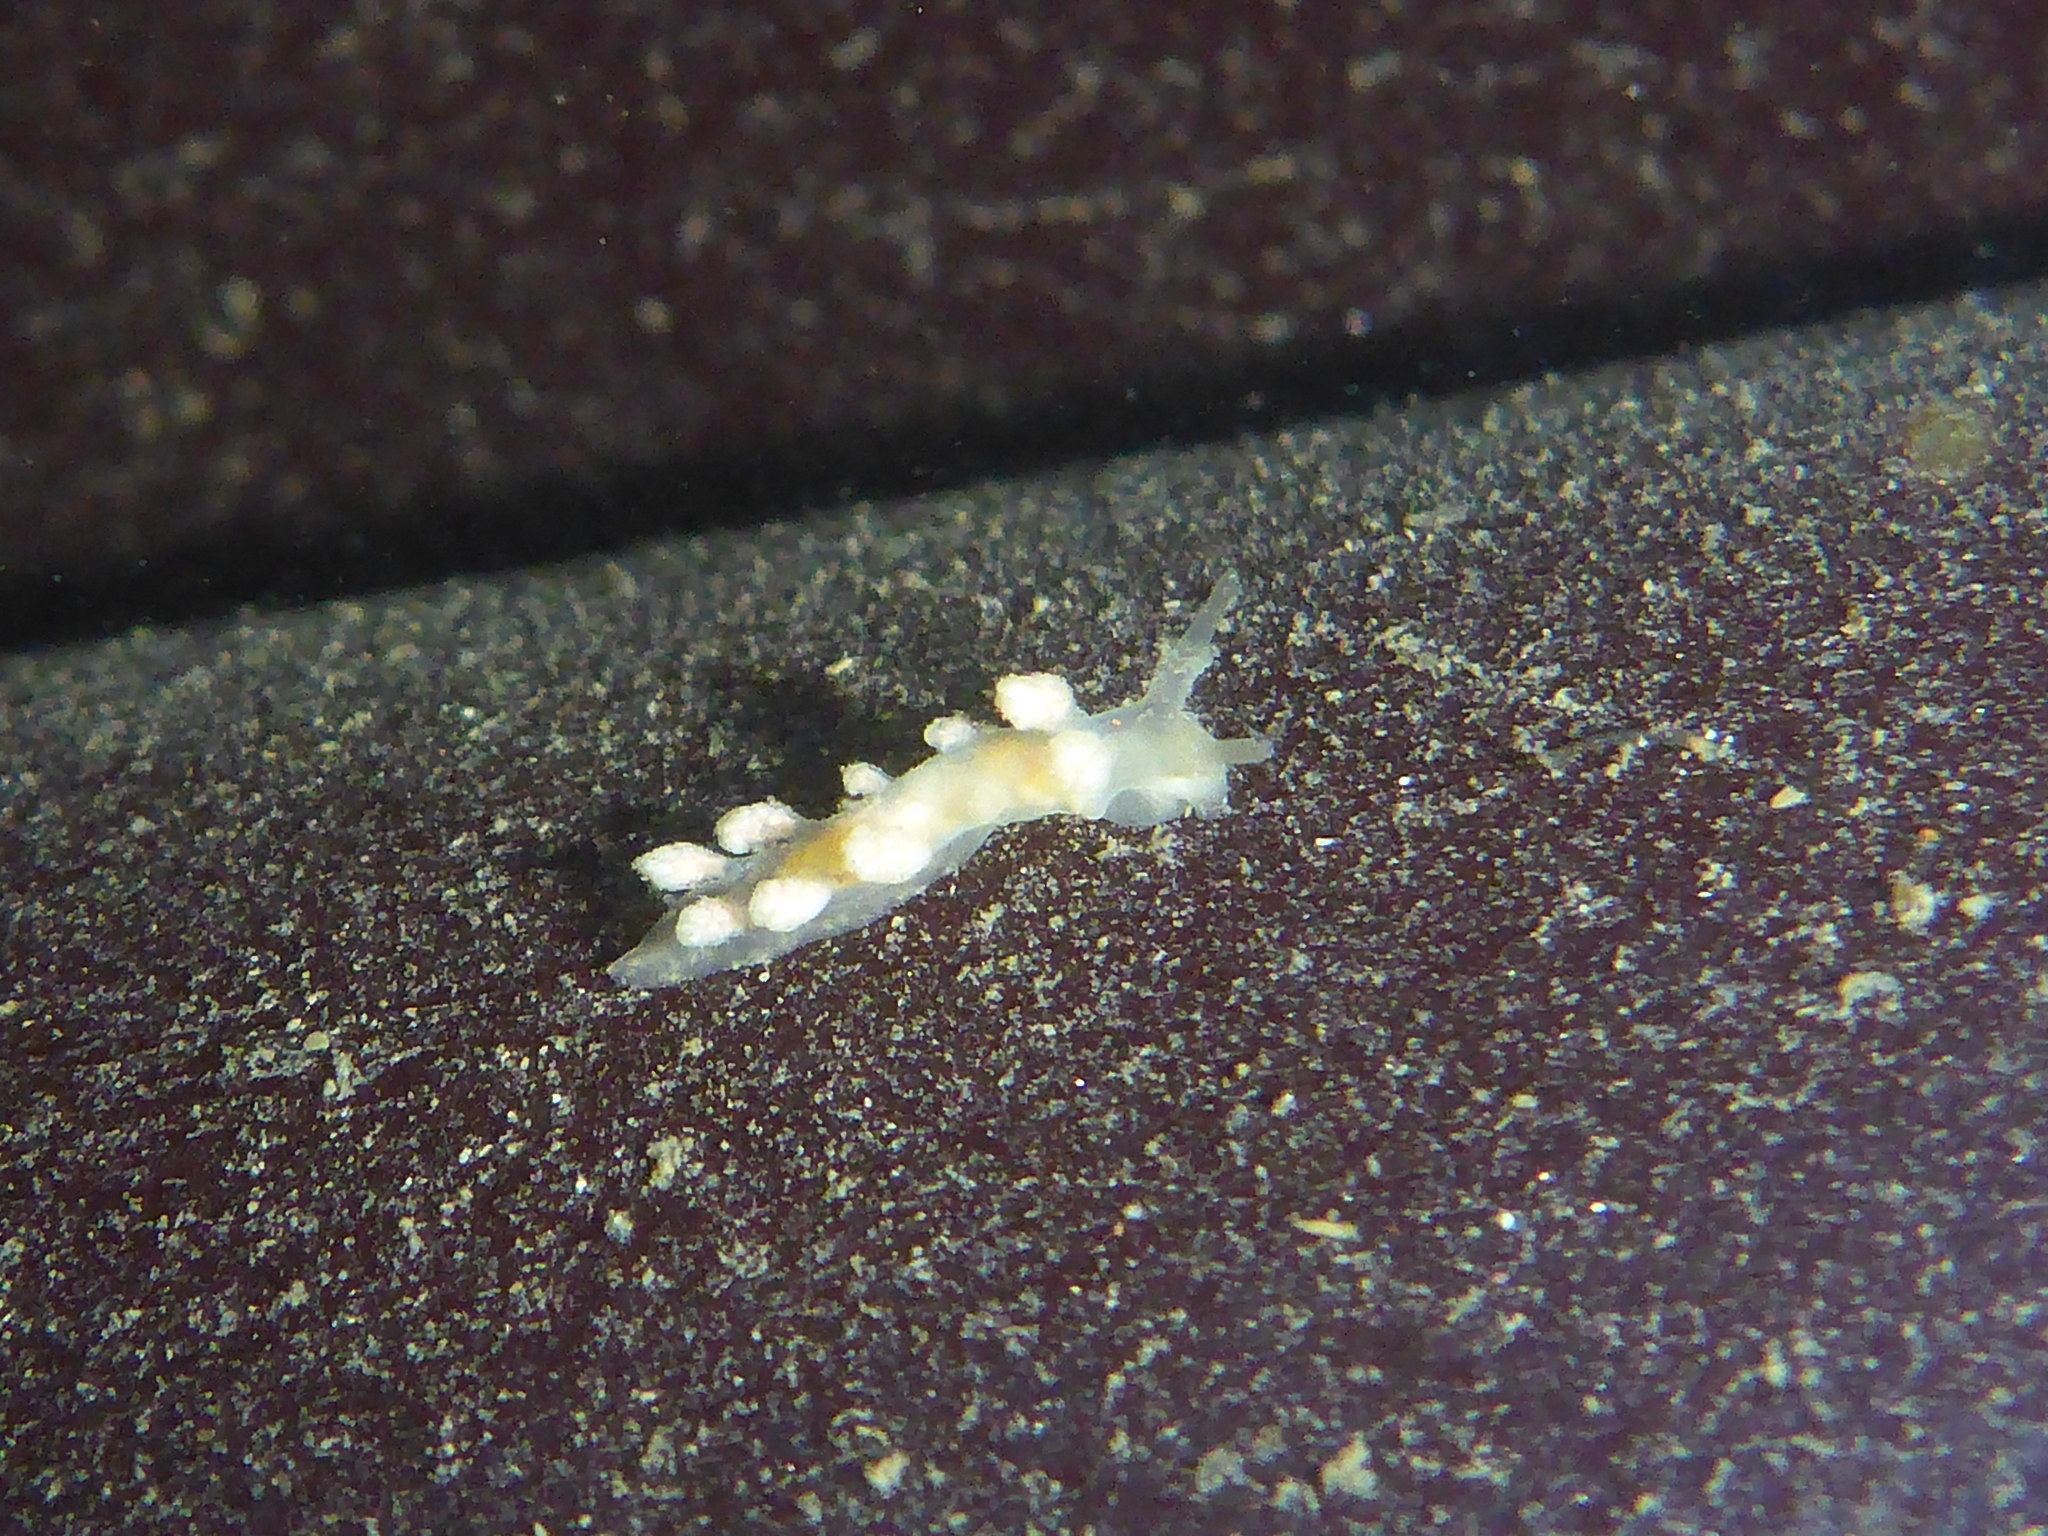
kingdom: Animalia
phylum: Mollusca
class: Gastropoda
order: Nudibranchia
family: Dotidae
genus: Doto
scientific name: Doto amyra
